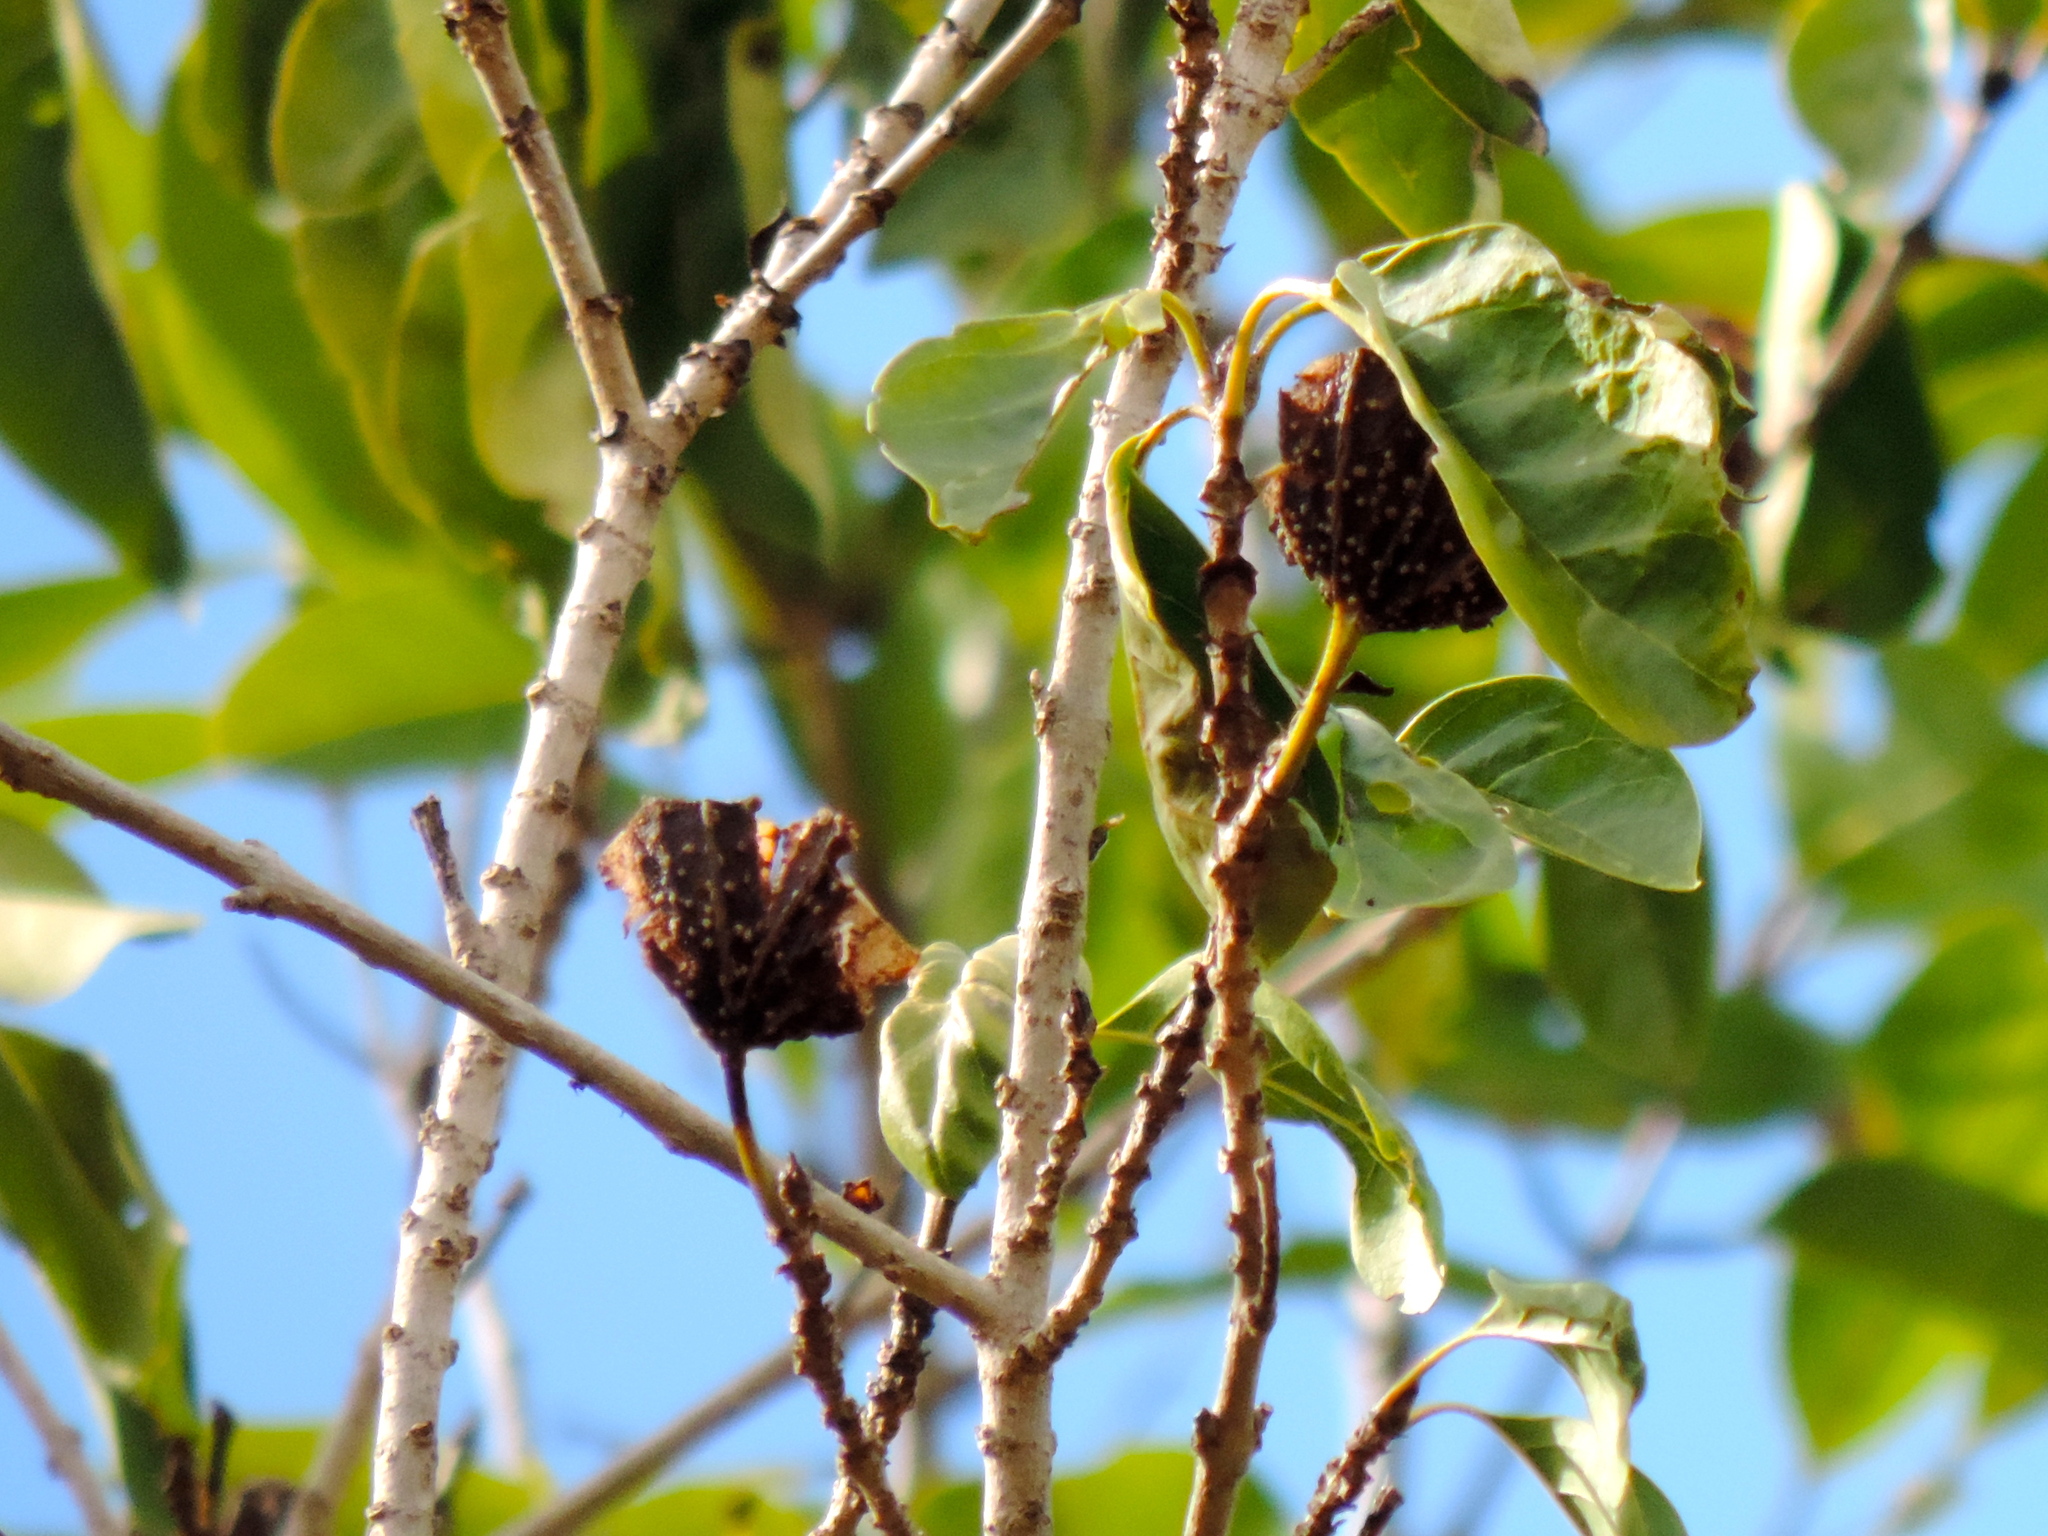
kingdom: Plantae
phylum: Tracheophyta
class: Magnoliopsida
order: Gentianales
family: Rubiaceae
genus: Hintonia
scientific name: Hintonia latiflora
